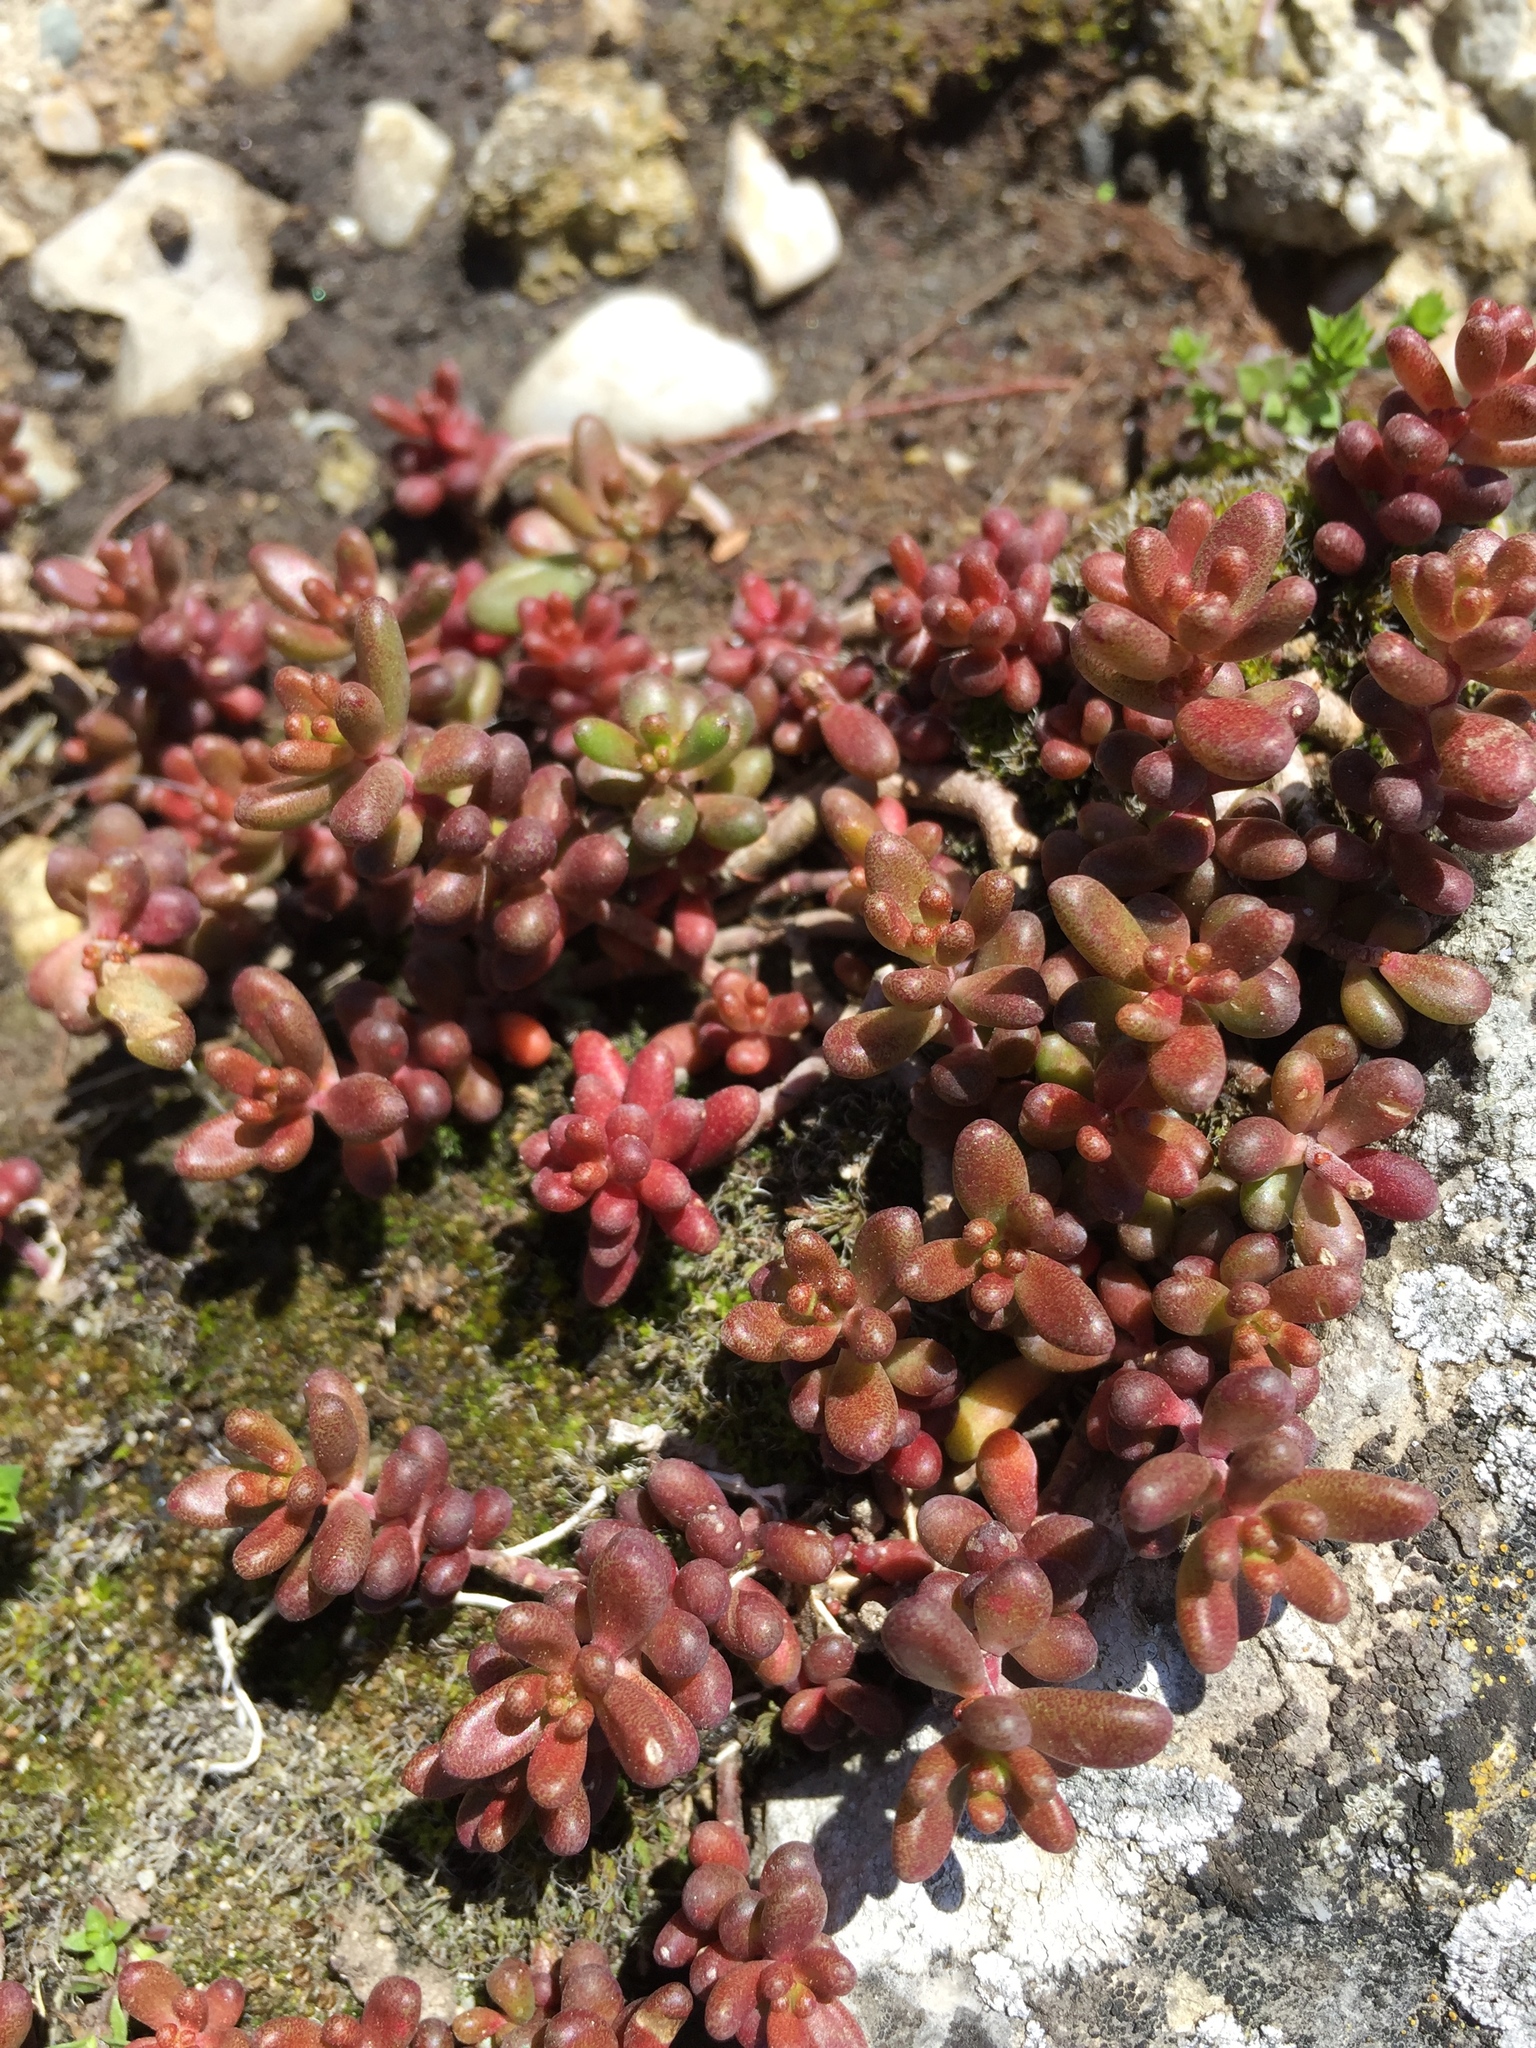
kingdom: Plantae
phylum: Tracheophyta
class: Magnoliopsida
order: Saxifragales
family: Crassulaceae
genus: Sedum
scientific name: Sedum album
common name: White stonecrop
